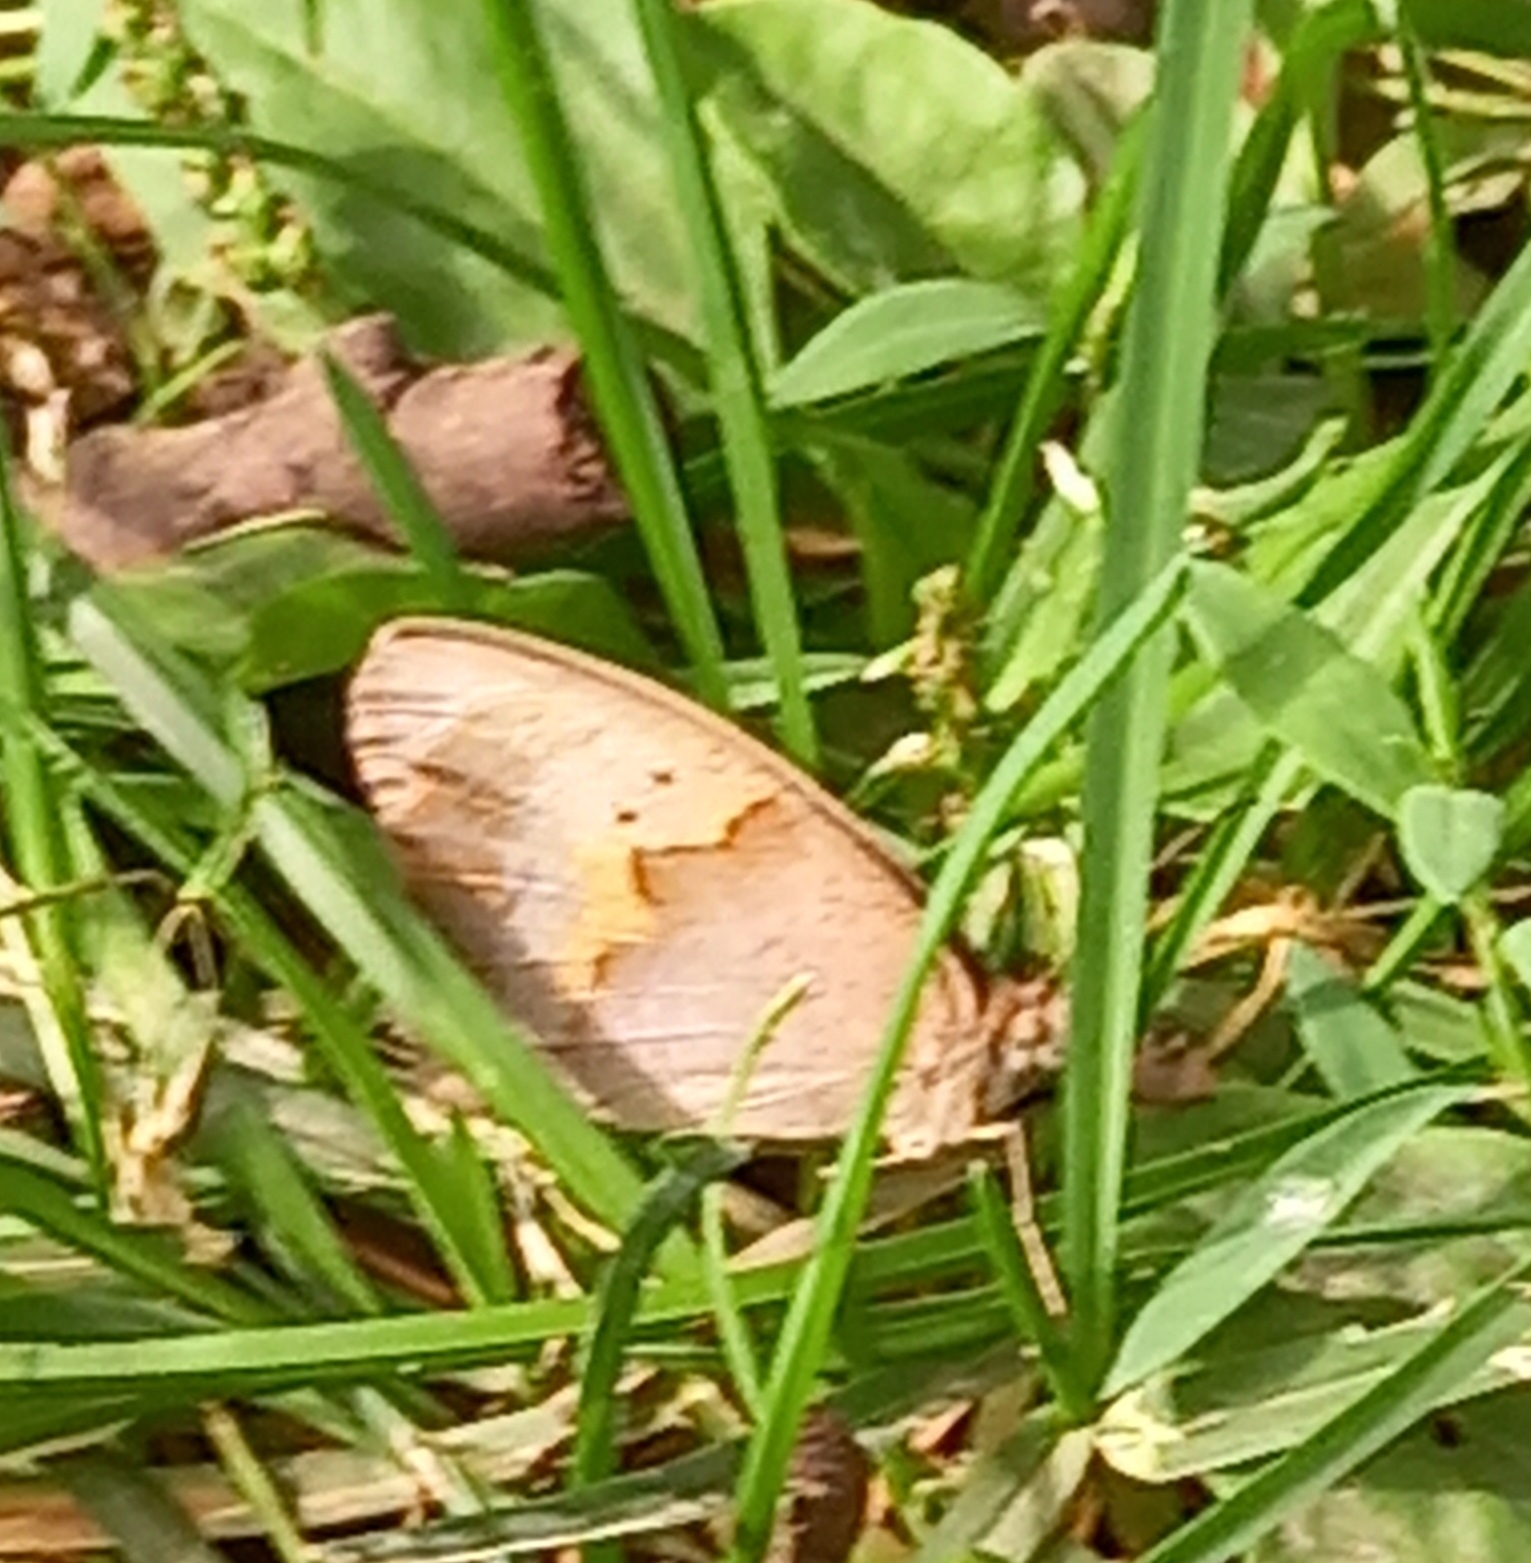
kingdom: Animalia
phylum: Arthropoda
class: Insecta
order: Lepidoptera
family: Nymphalidae
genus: Maniola
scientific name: Maniola jurtina
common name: Meadow brown
